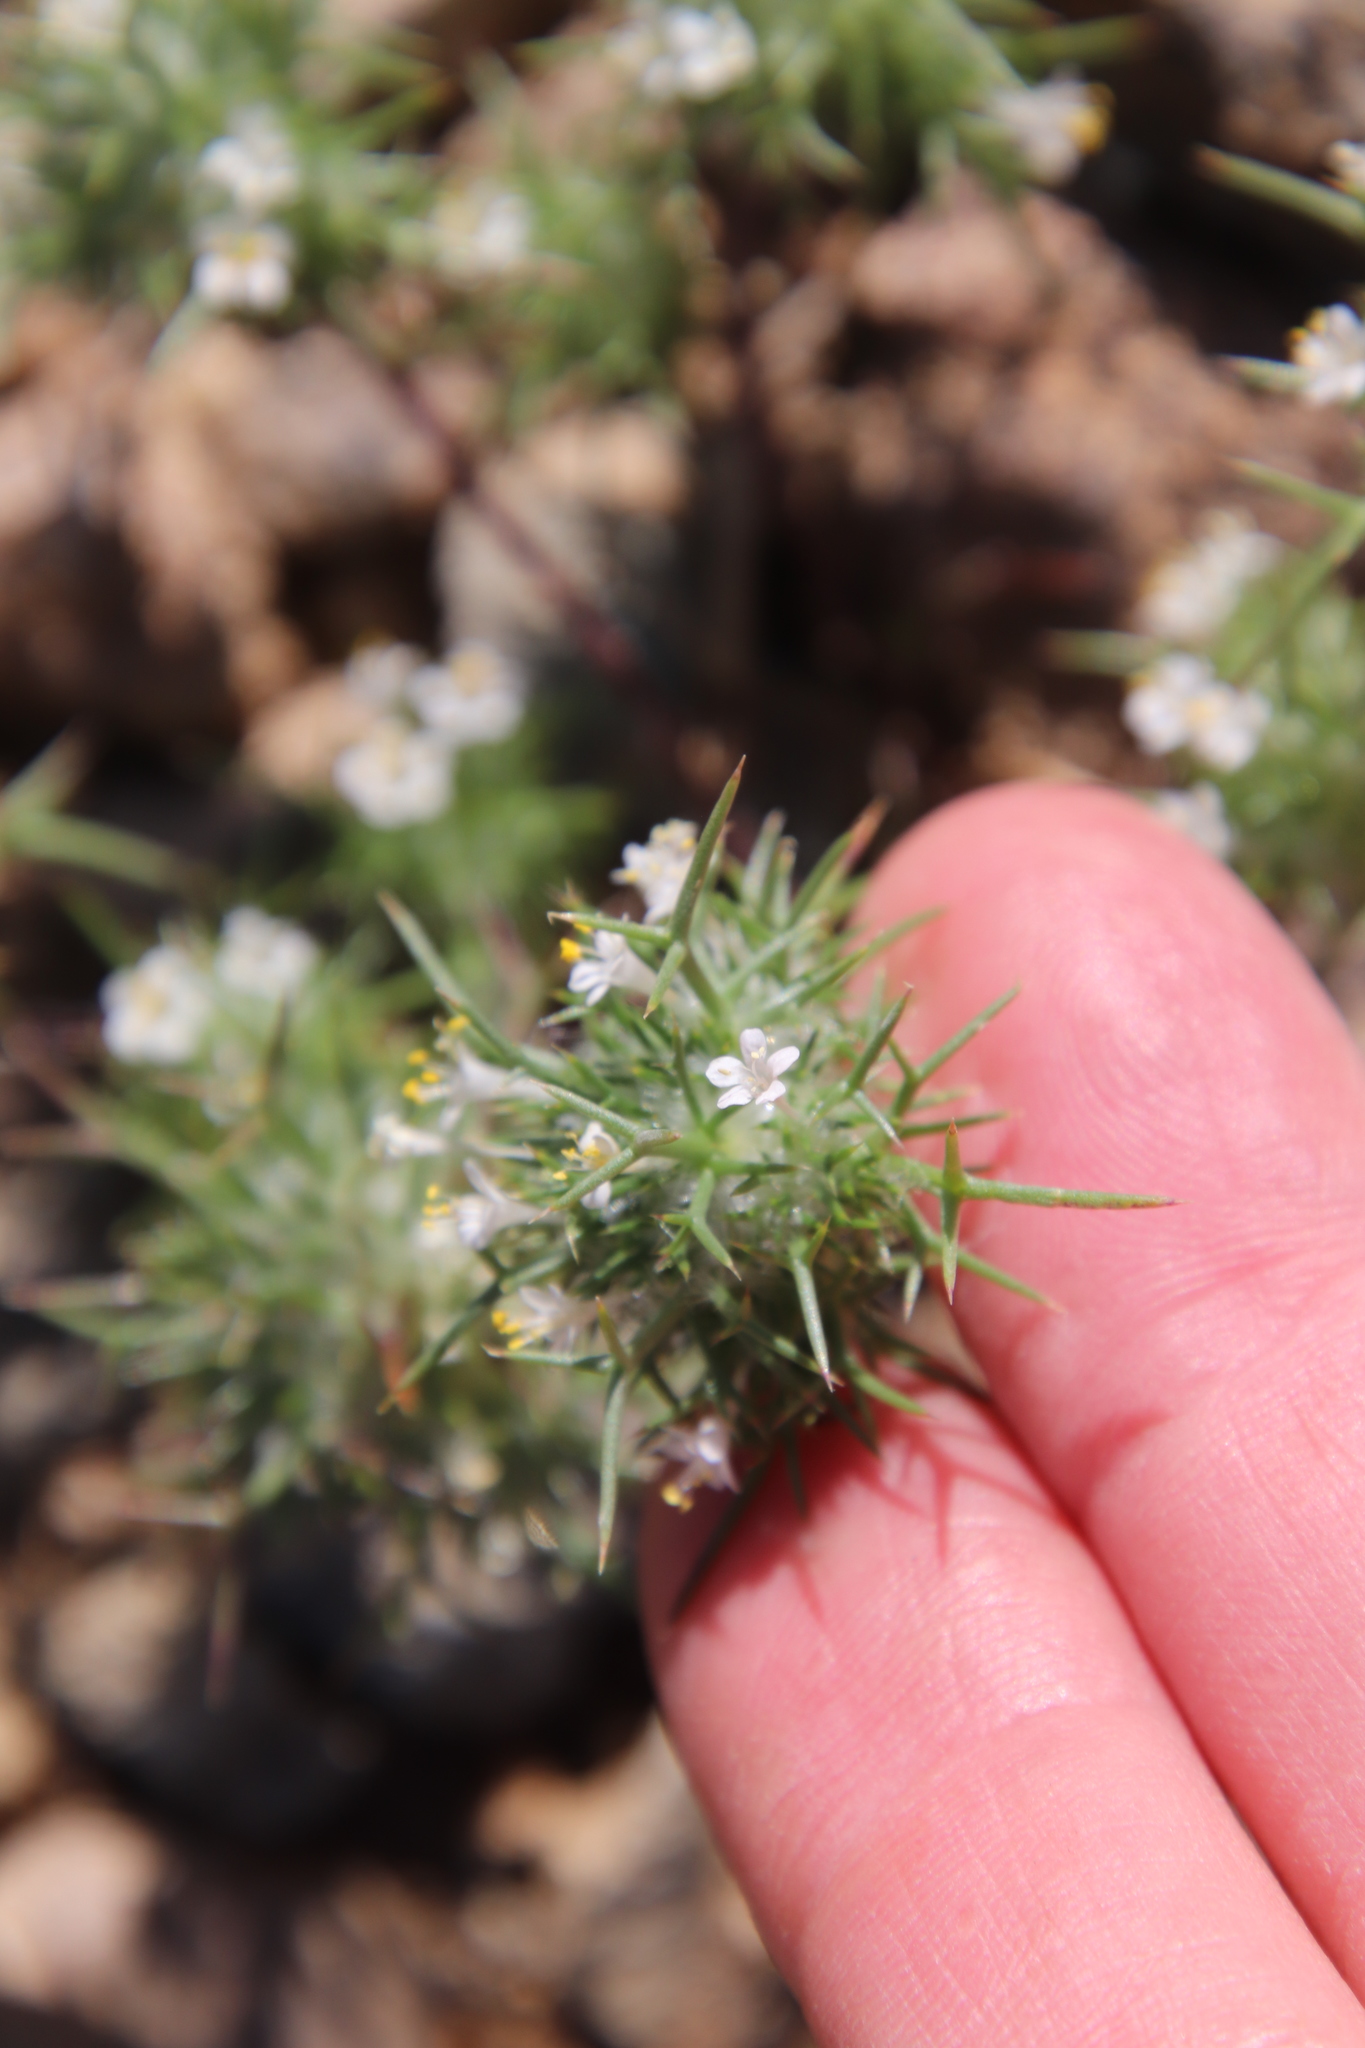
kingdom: Plantae
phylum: Tracheophyta
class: Magnoliopsida
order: Ericales
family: Polemoniaceae
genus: Navarretia
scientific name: Navarretia intertexta
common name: Needle-leaved navarretia
